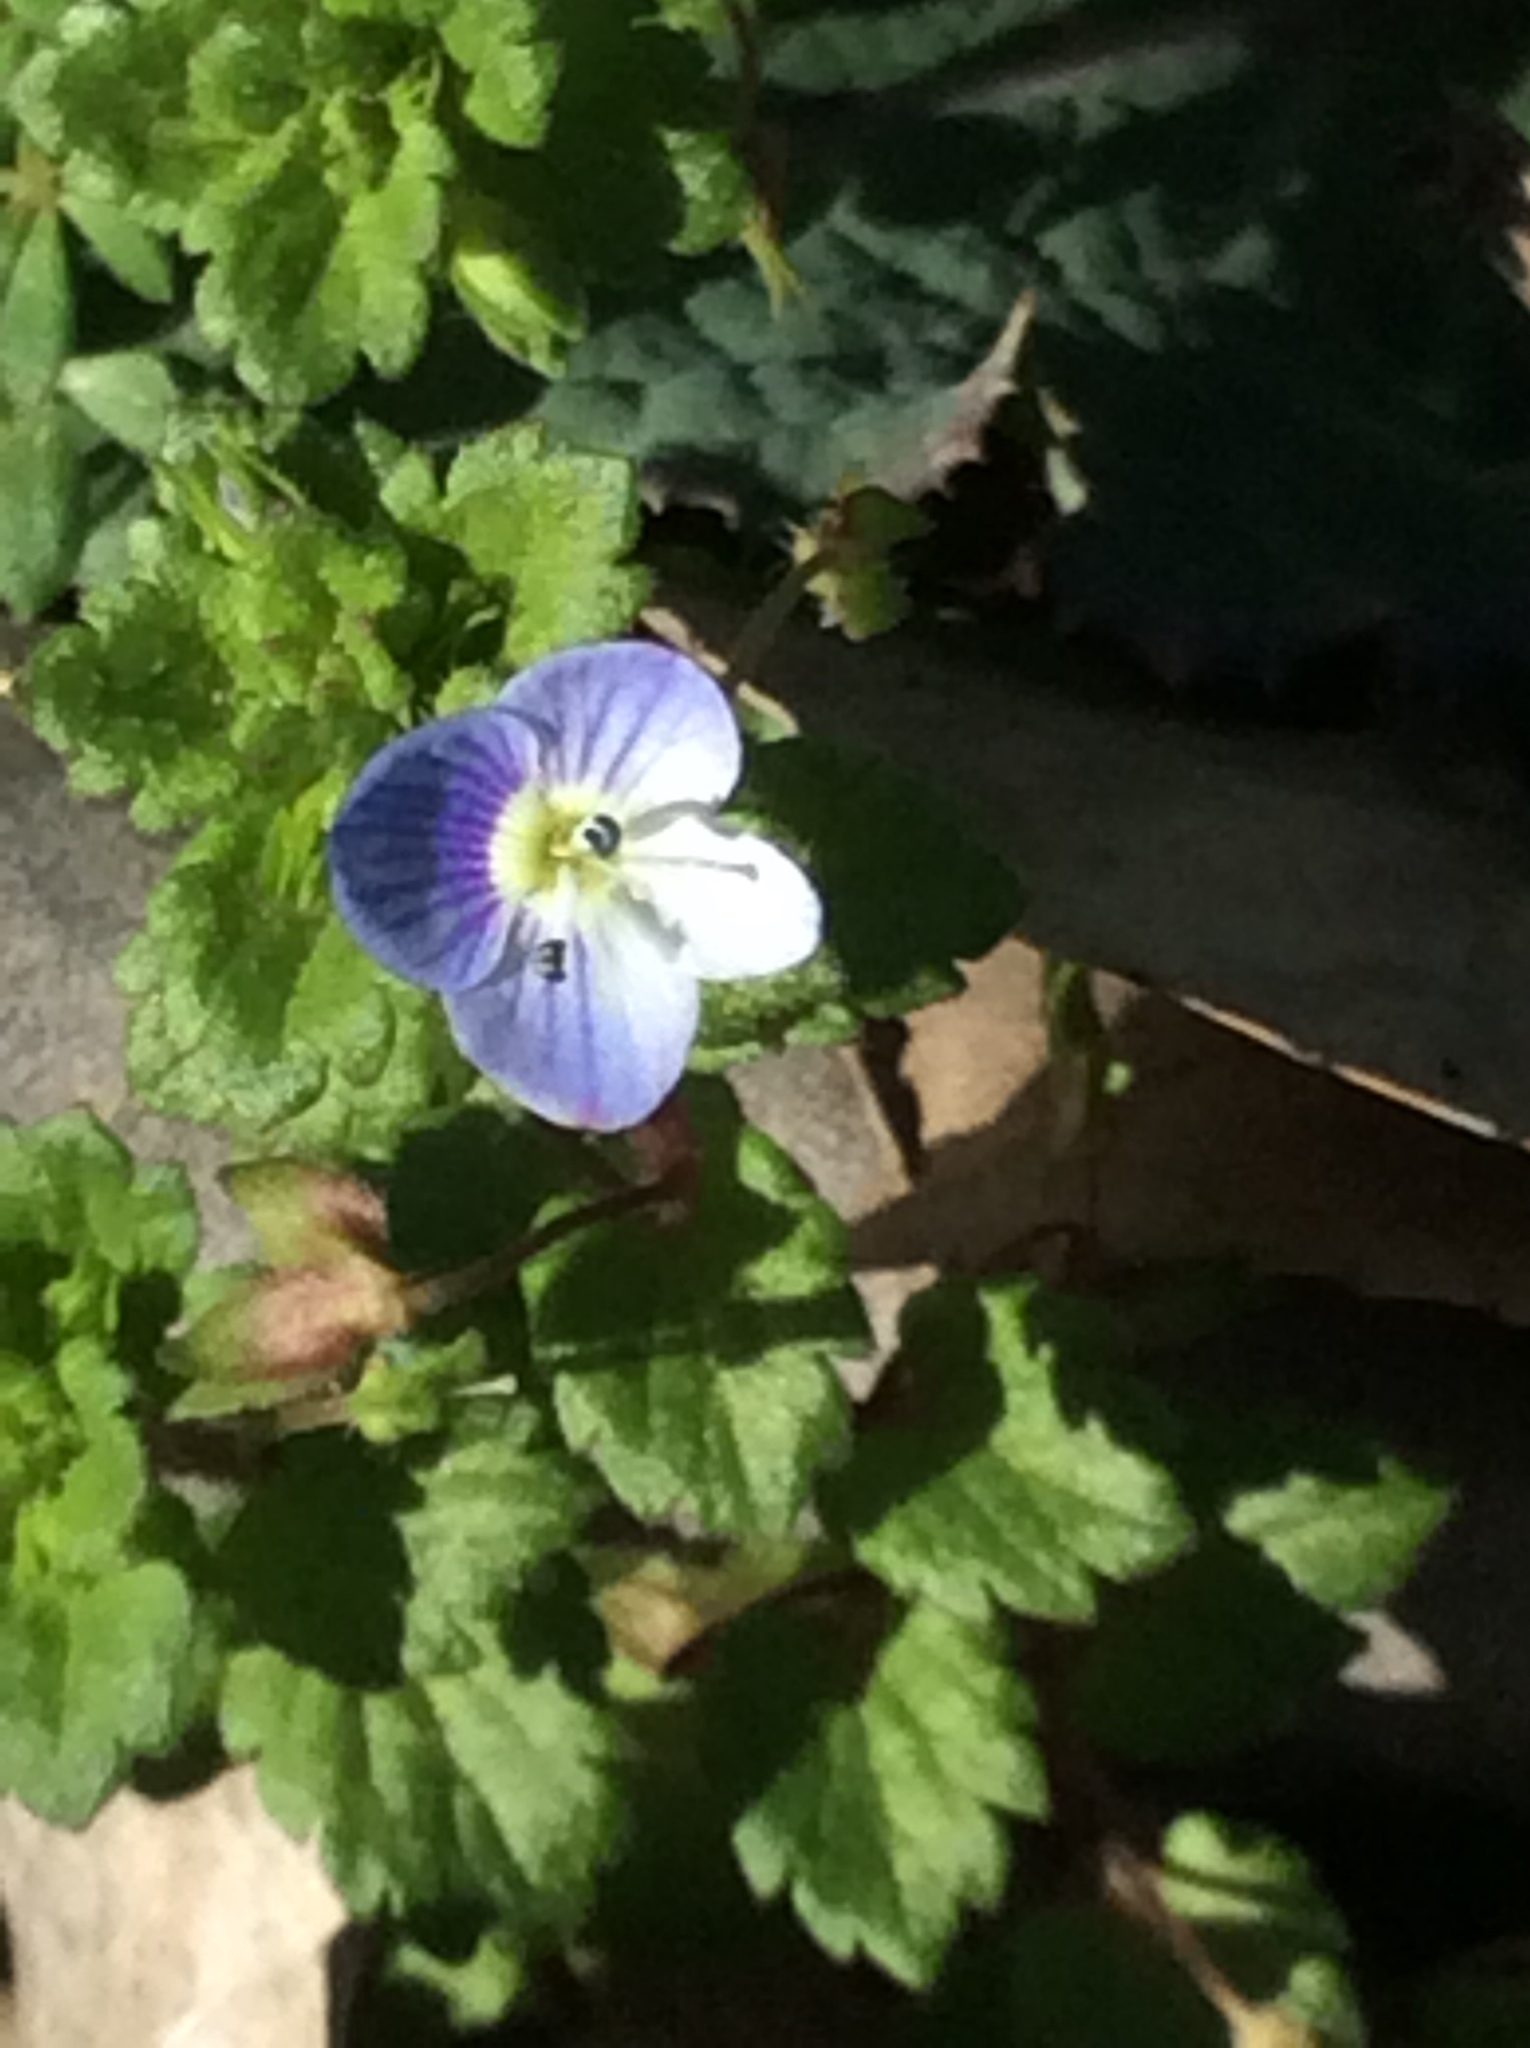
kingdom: Plantae
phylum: Tracheophyta
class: Magnoliopsida
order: Lamiales
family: Plantaginaceae
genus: Veronica
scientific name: Veronica persica
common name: Common field-speedwell
